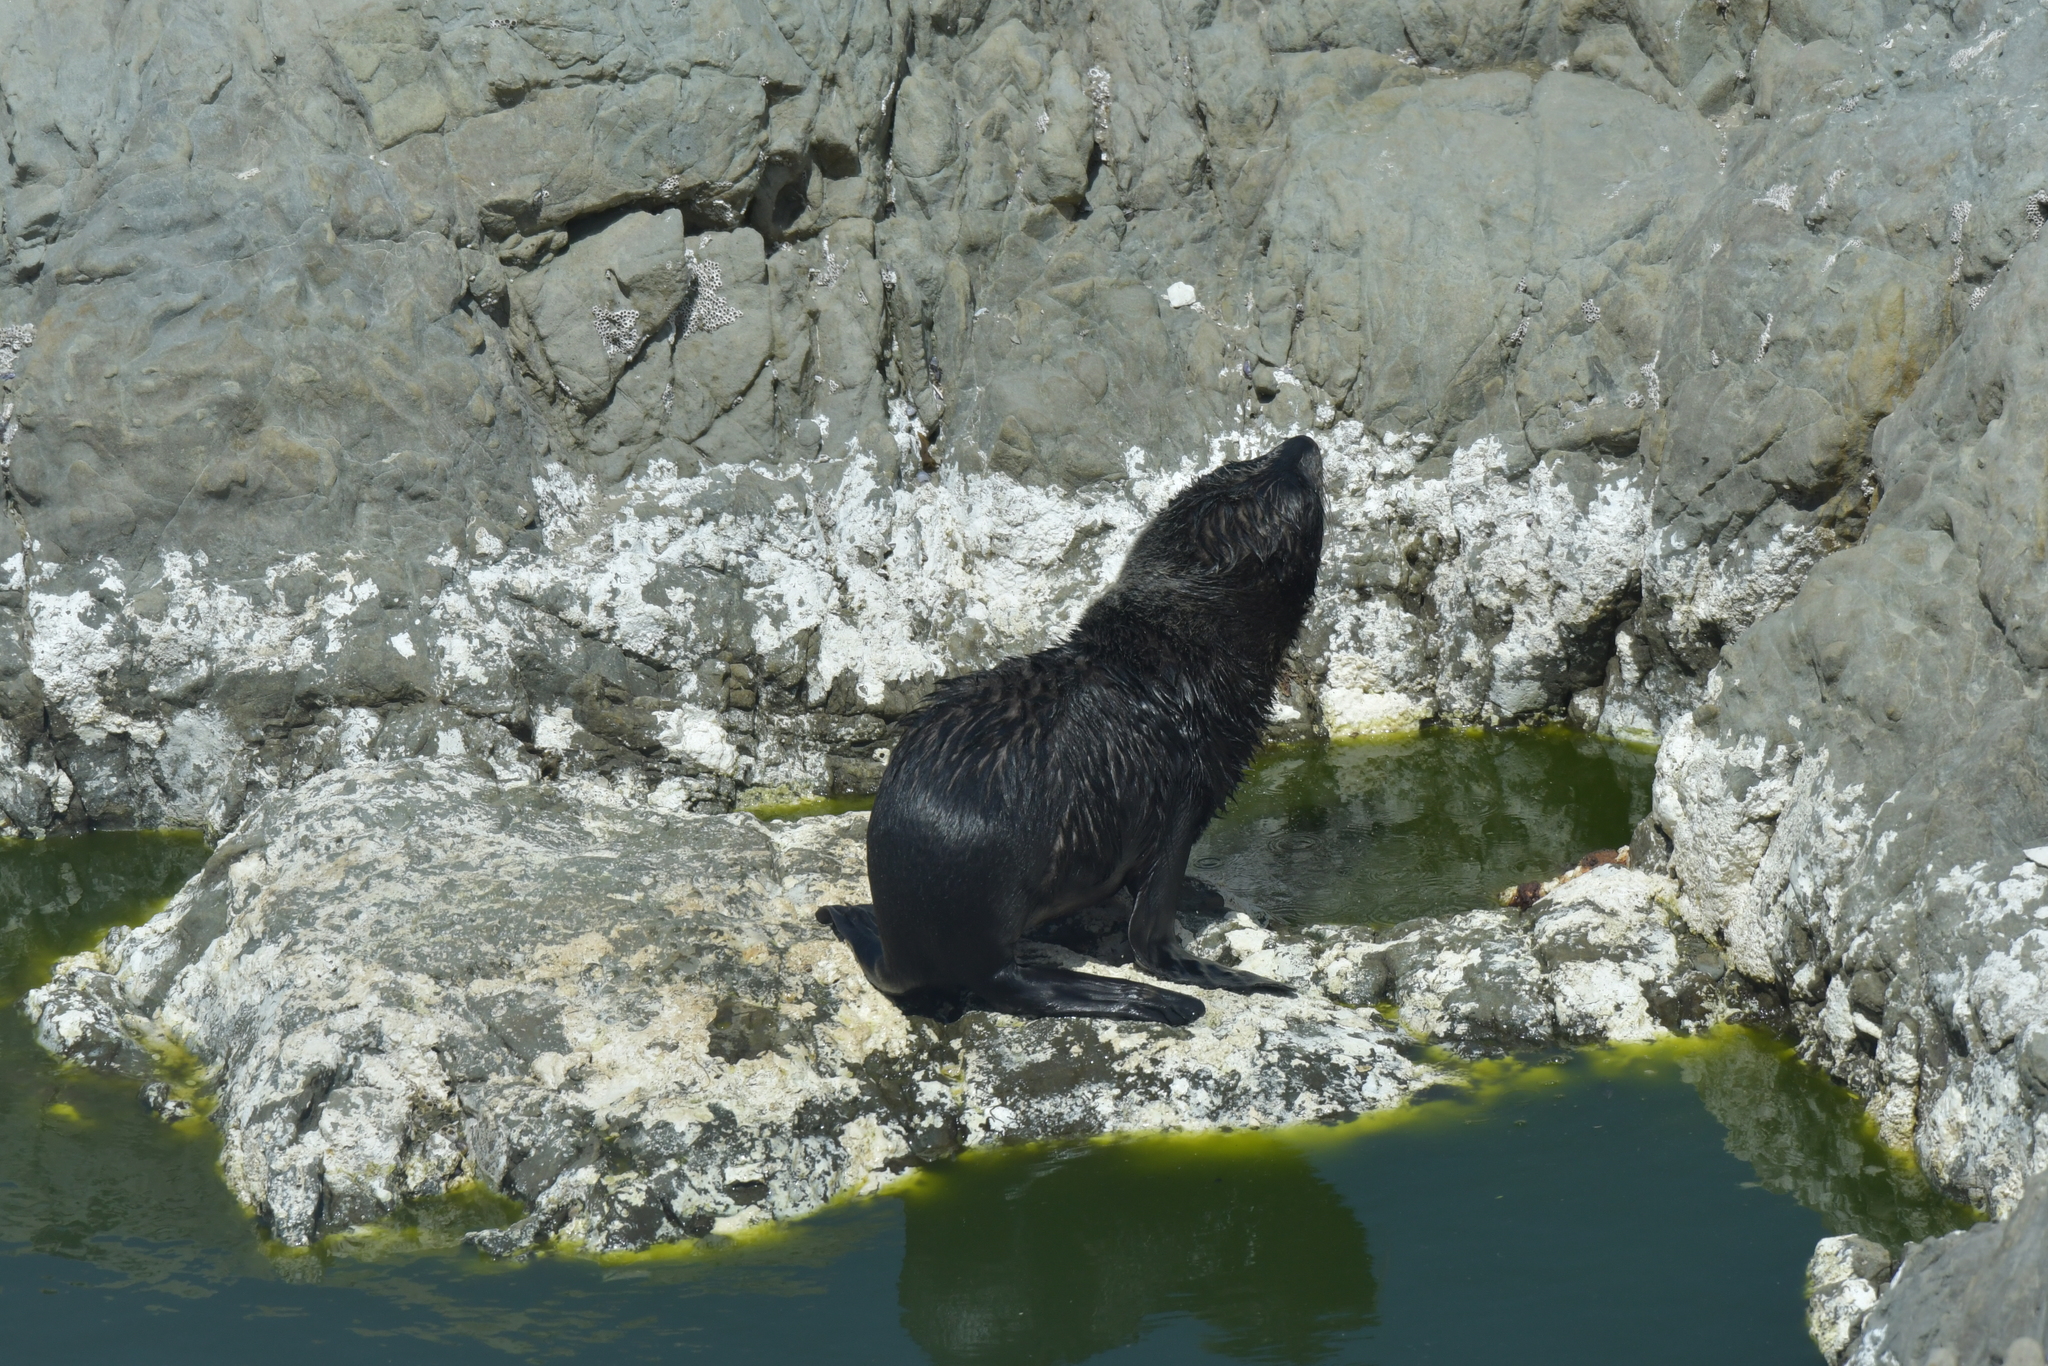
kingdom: Animalia
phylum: Chordata
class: Mammalia
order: Carnivora
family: Otariidae
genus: Arctocephalus
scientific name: Arctocephalus forsteri
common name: New zealand fur seal
